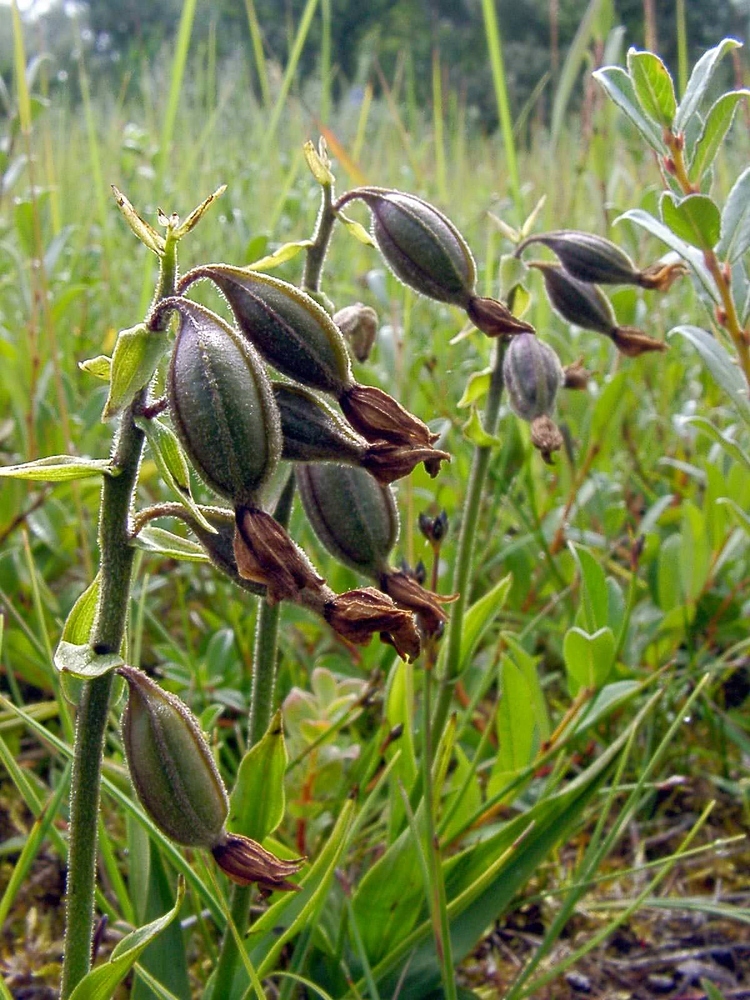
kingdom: Plantae
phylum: Tracheophyta
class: Liliopsida
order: Asparagales
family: Orchidaceae
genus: Epipactis
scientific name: Epipactis palustris
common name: Marsh helleborine
